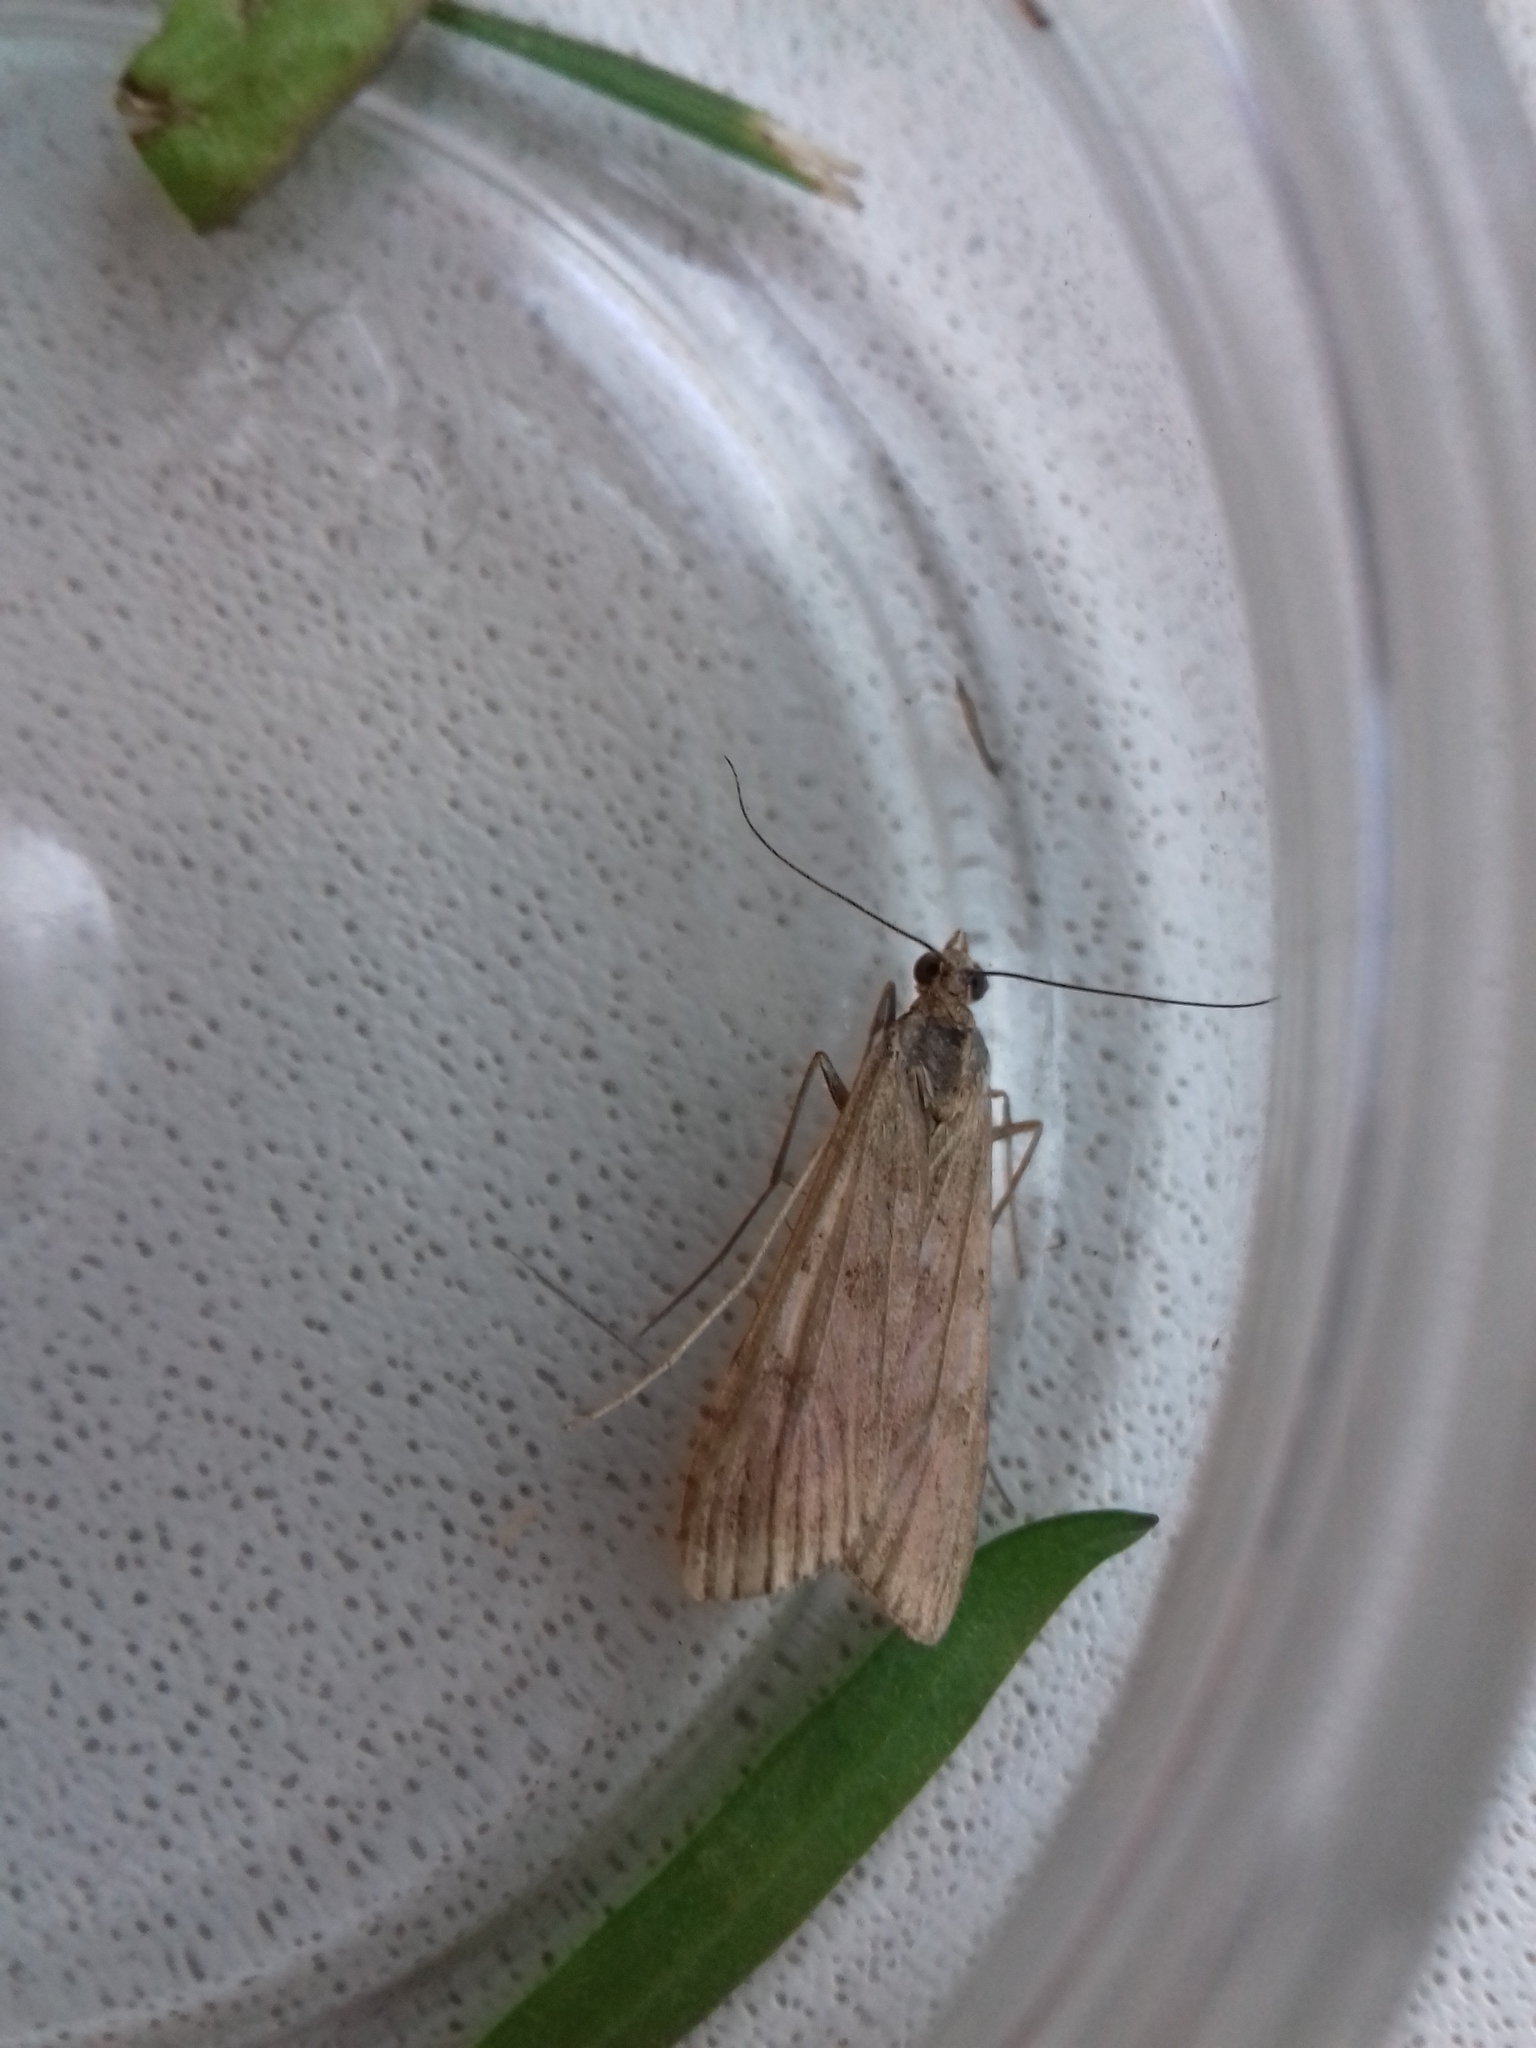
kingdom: Animalia
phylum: Arthropoda
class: Insecta
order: Lepidoptera
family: Crambidae
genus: Nomophila
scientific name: Nomophila noctuella
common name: Rush veneer
